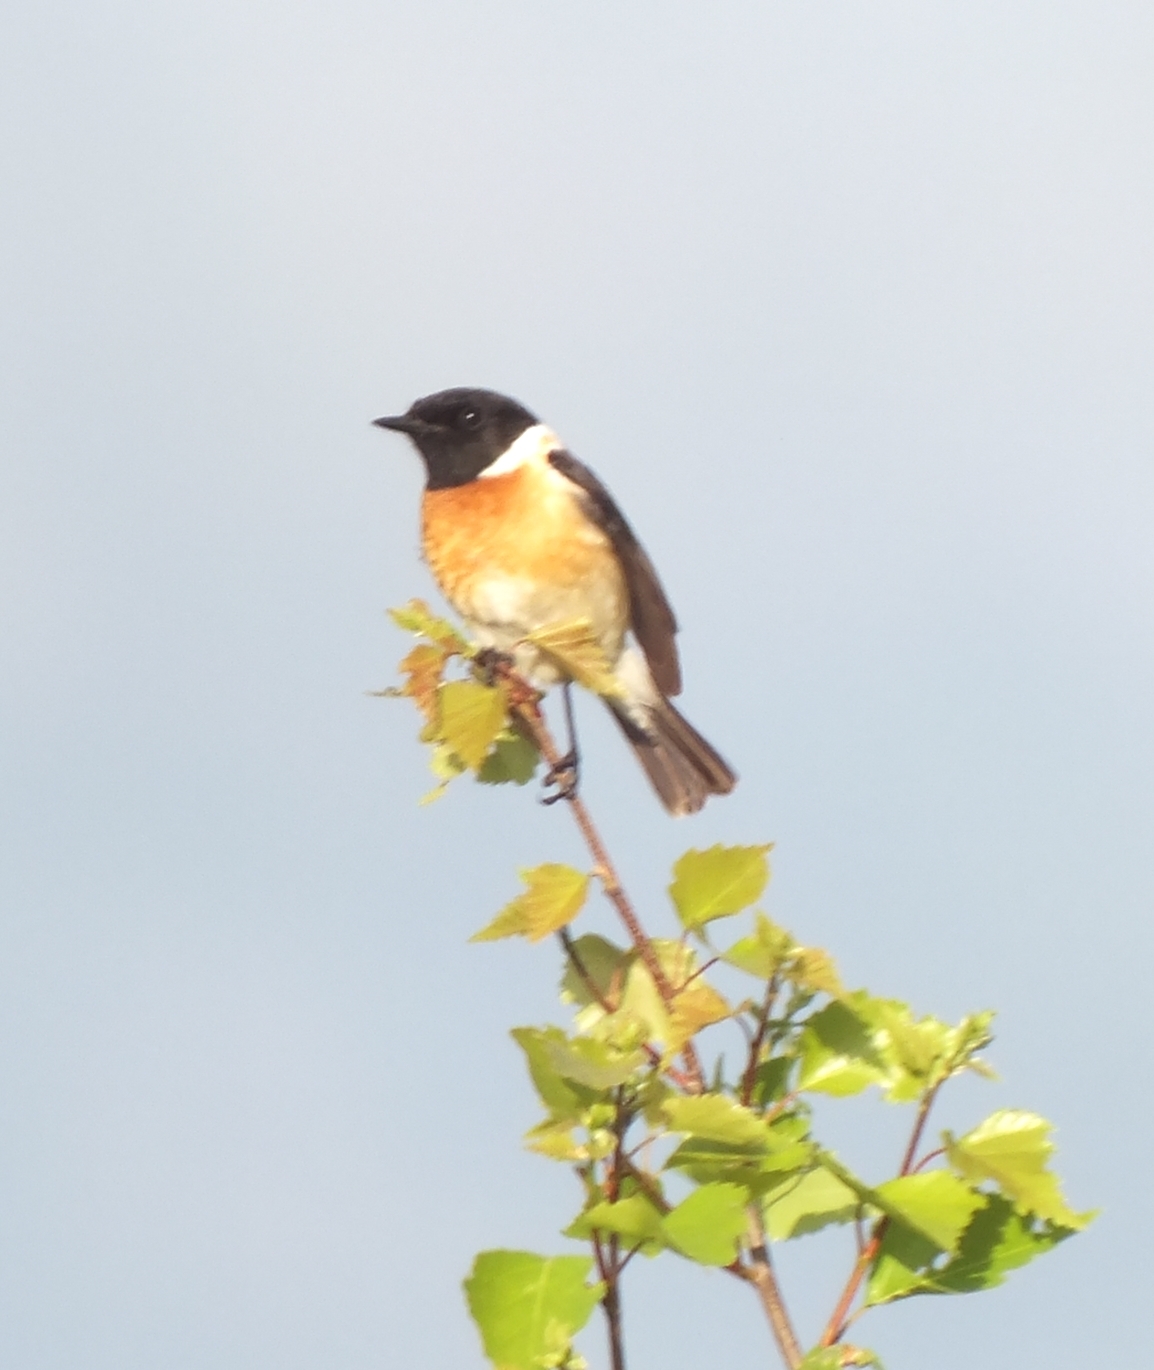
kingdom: Animalia
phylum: Chordata
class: Aves
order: Passeriformes
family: Muscicapidae
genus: Saxicola
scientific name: Saxicola maurus
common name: Siberian stonechat
